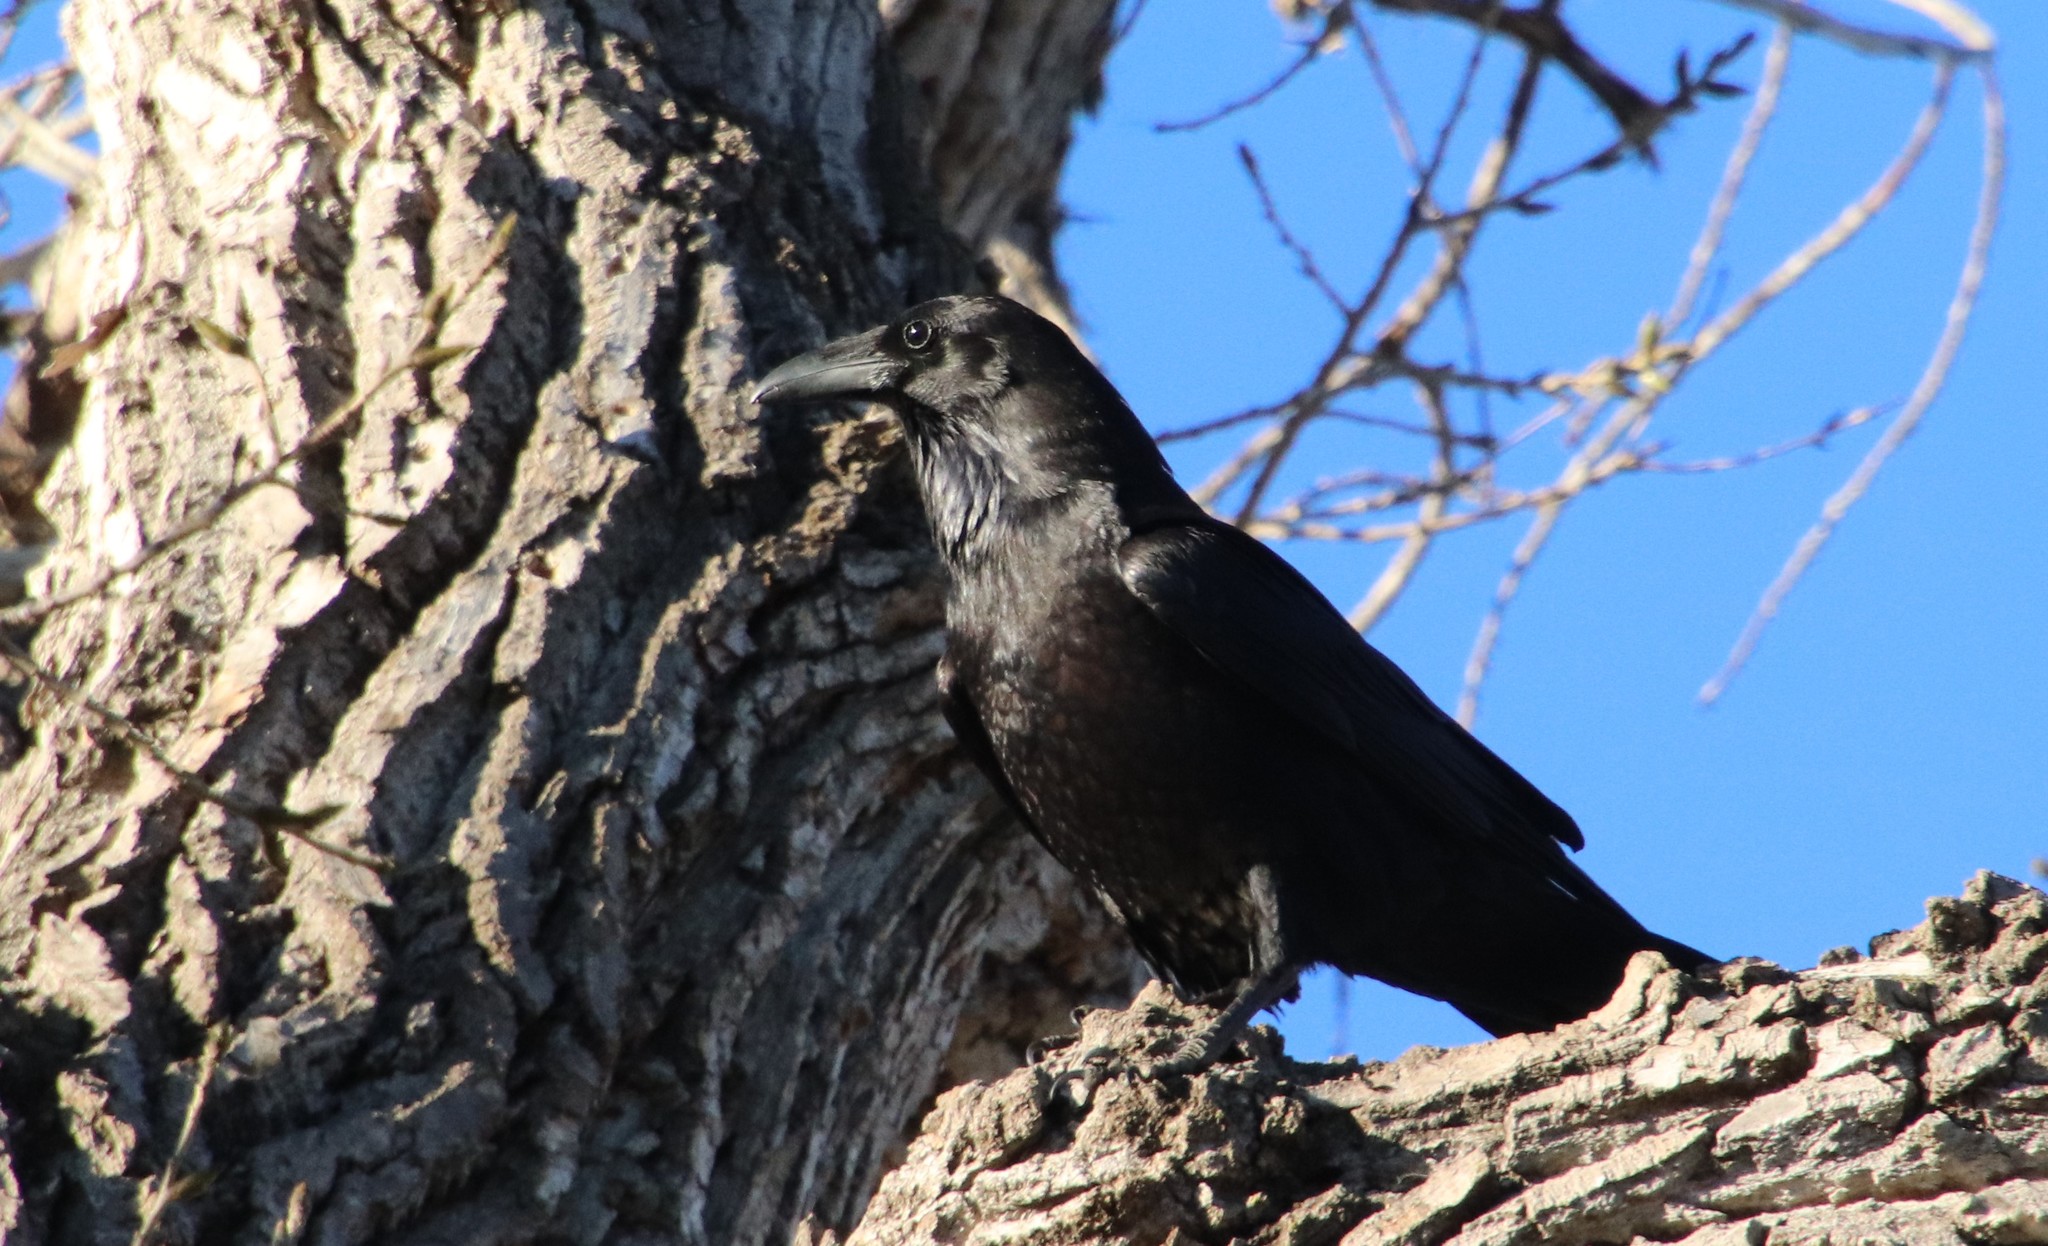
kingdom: Animalia
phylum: Chordata
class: Aves
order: Passeriformes
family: Corvidae
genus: Corvus
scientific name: Corvus corax
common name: Common raven
